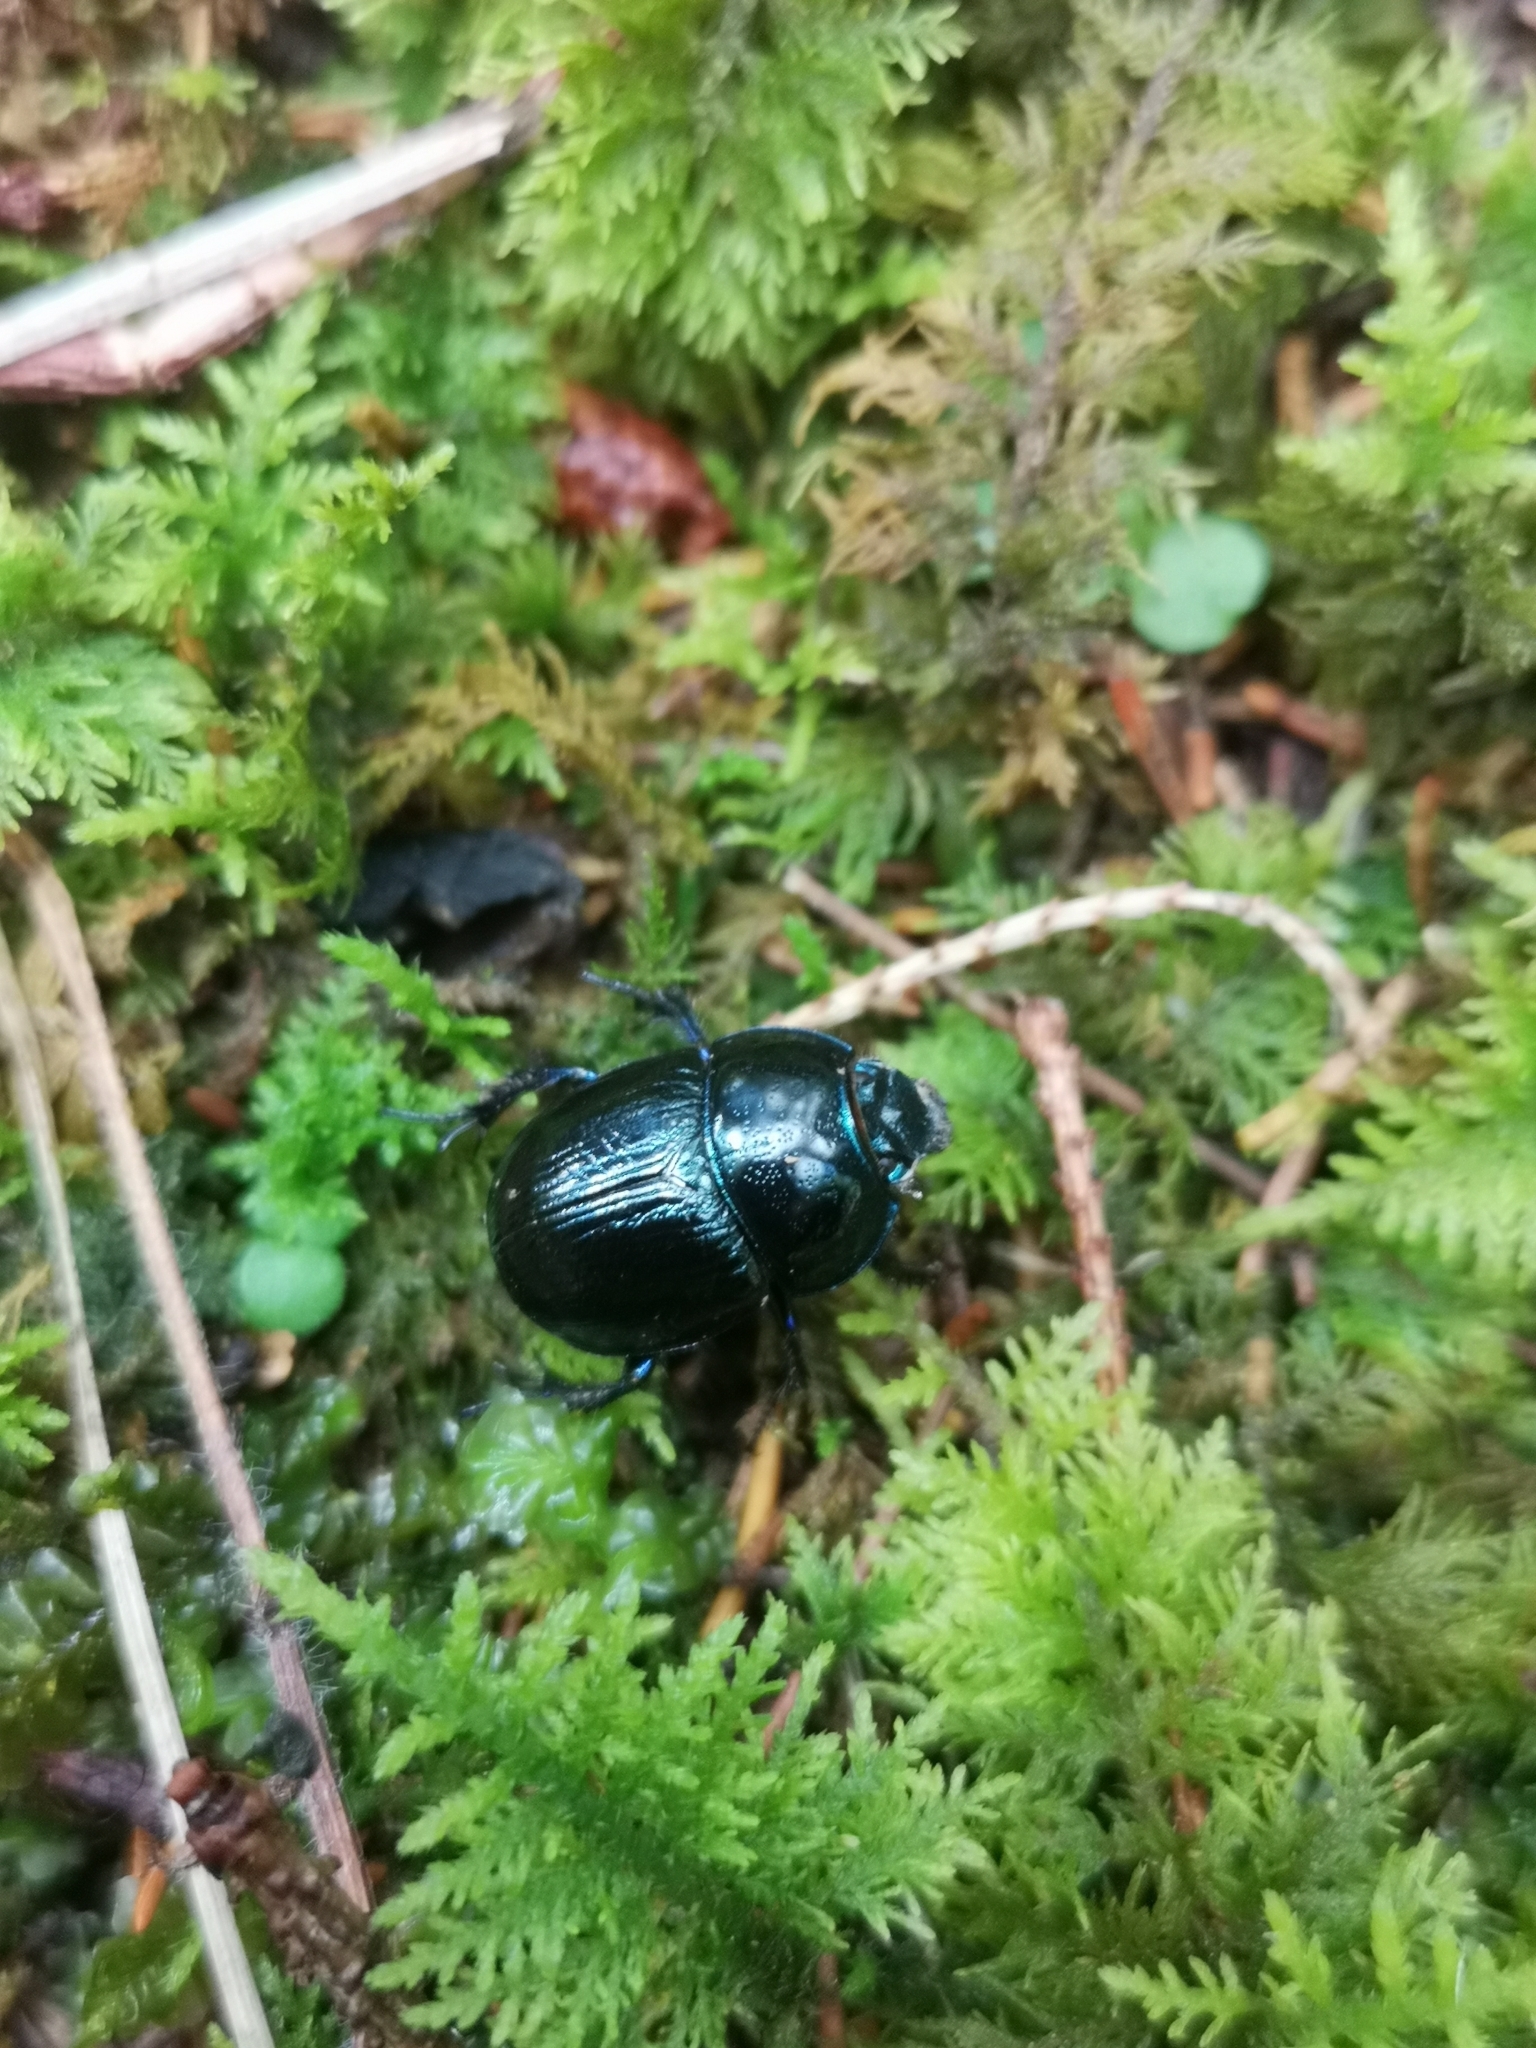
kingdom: Animalia
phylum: Arthropoda
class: Insecta
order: Coleoptera
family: Geotrupidae
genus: Anoplotrupes
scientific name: Anoplotrupes stercorosus
